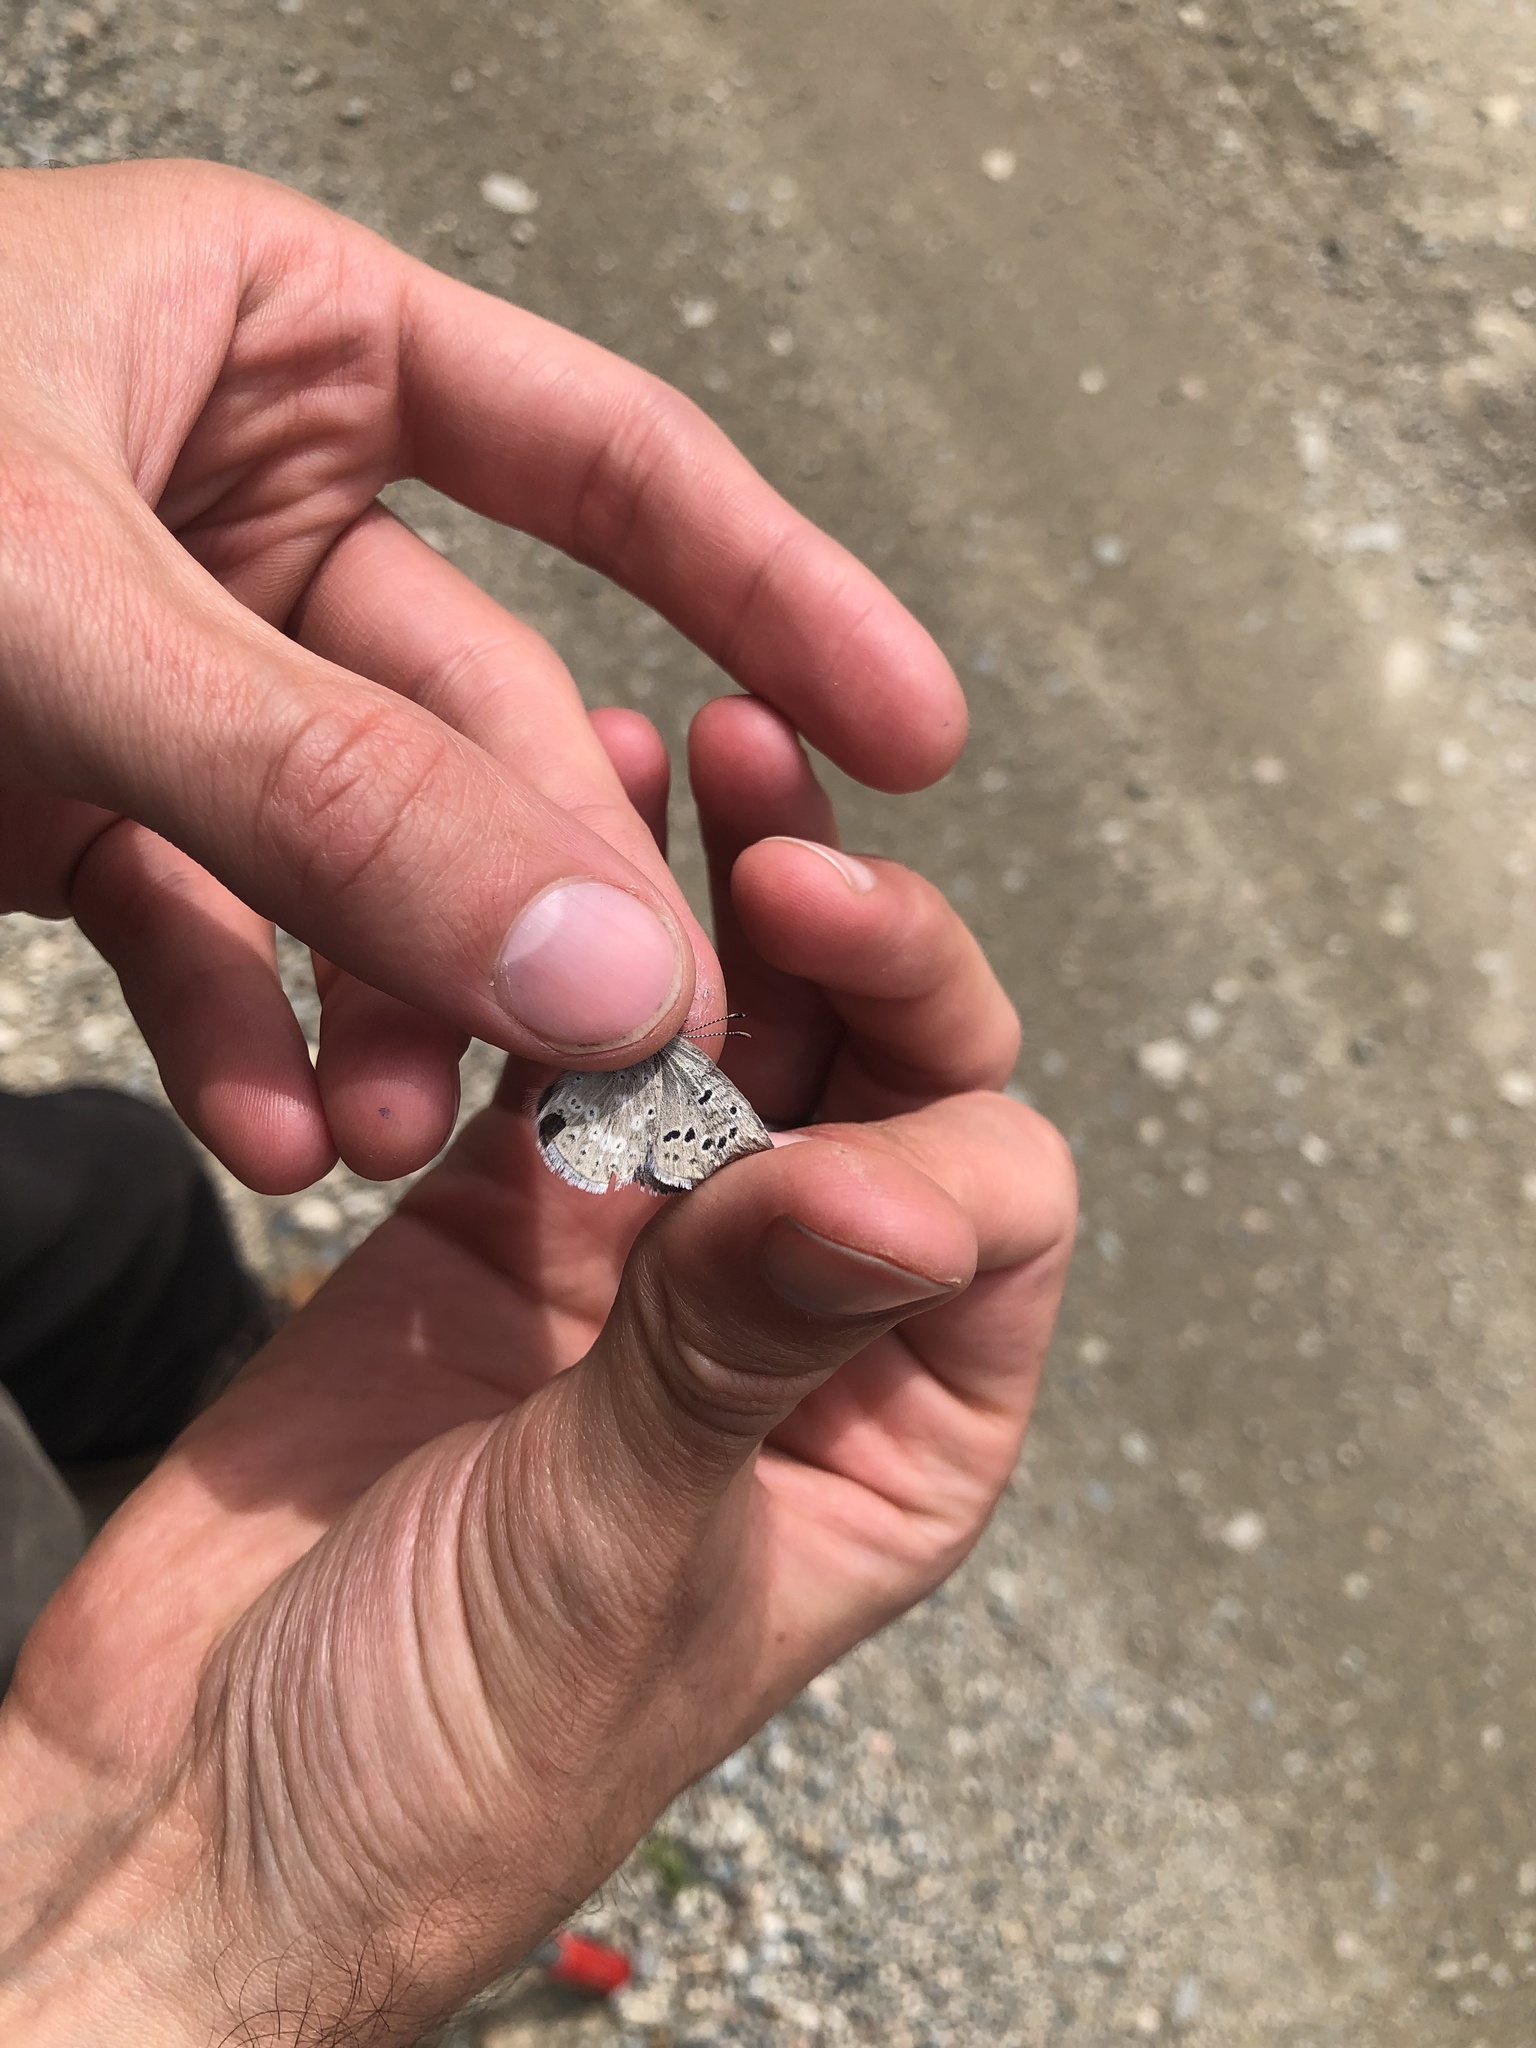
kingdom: Animalia
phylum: Arthropoda
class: Insecta
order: Lepidoptera
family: Lycaenidae
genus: Icaricia
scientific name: Icaricia icarioides
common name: Boisduval's blue
